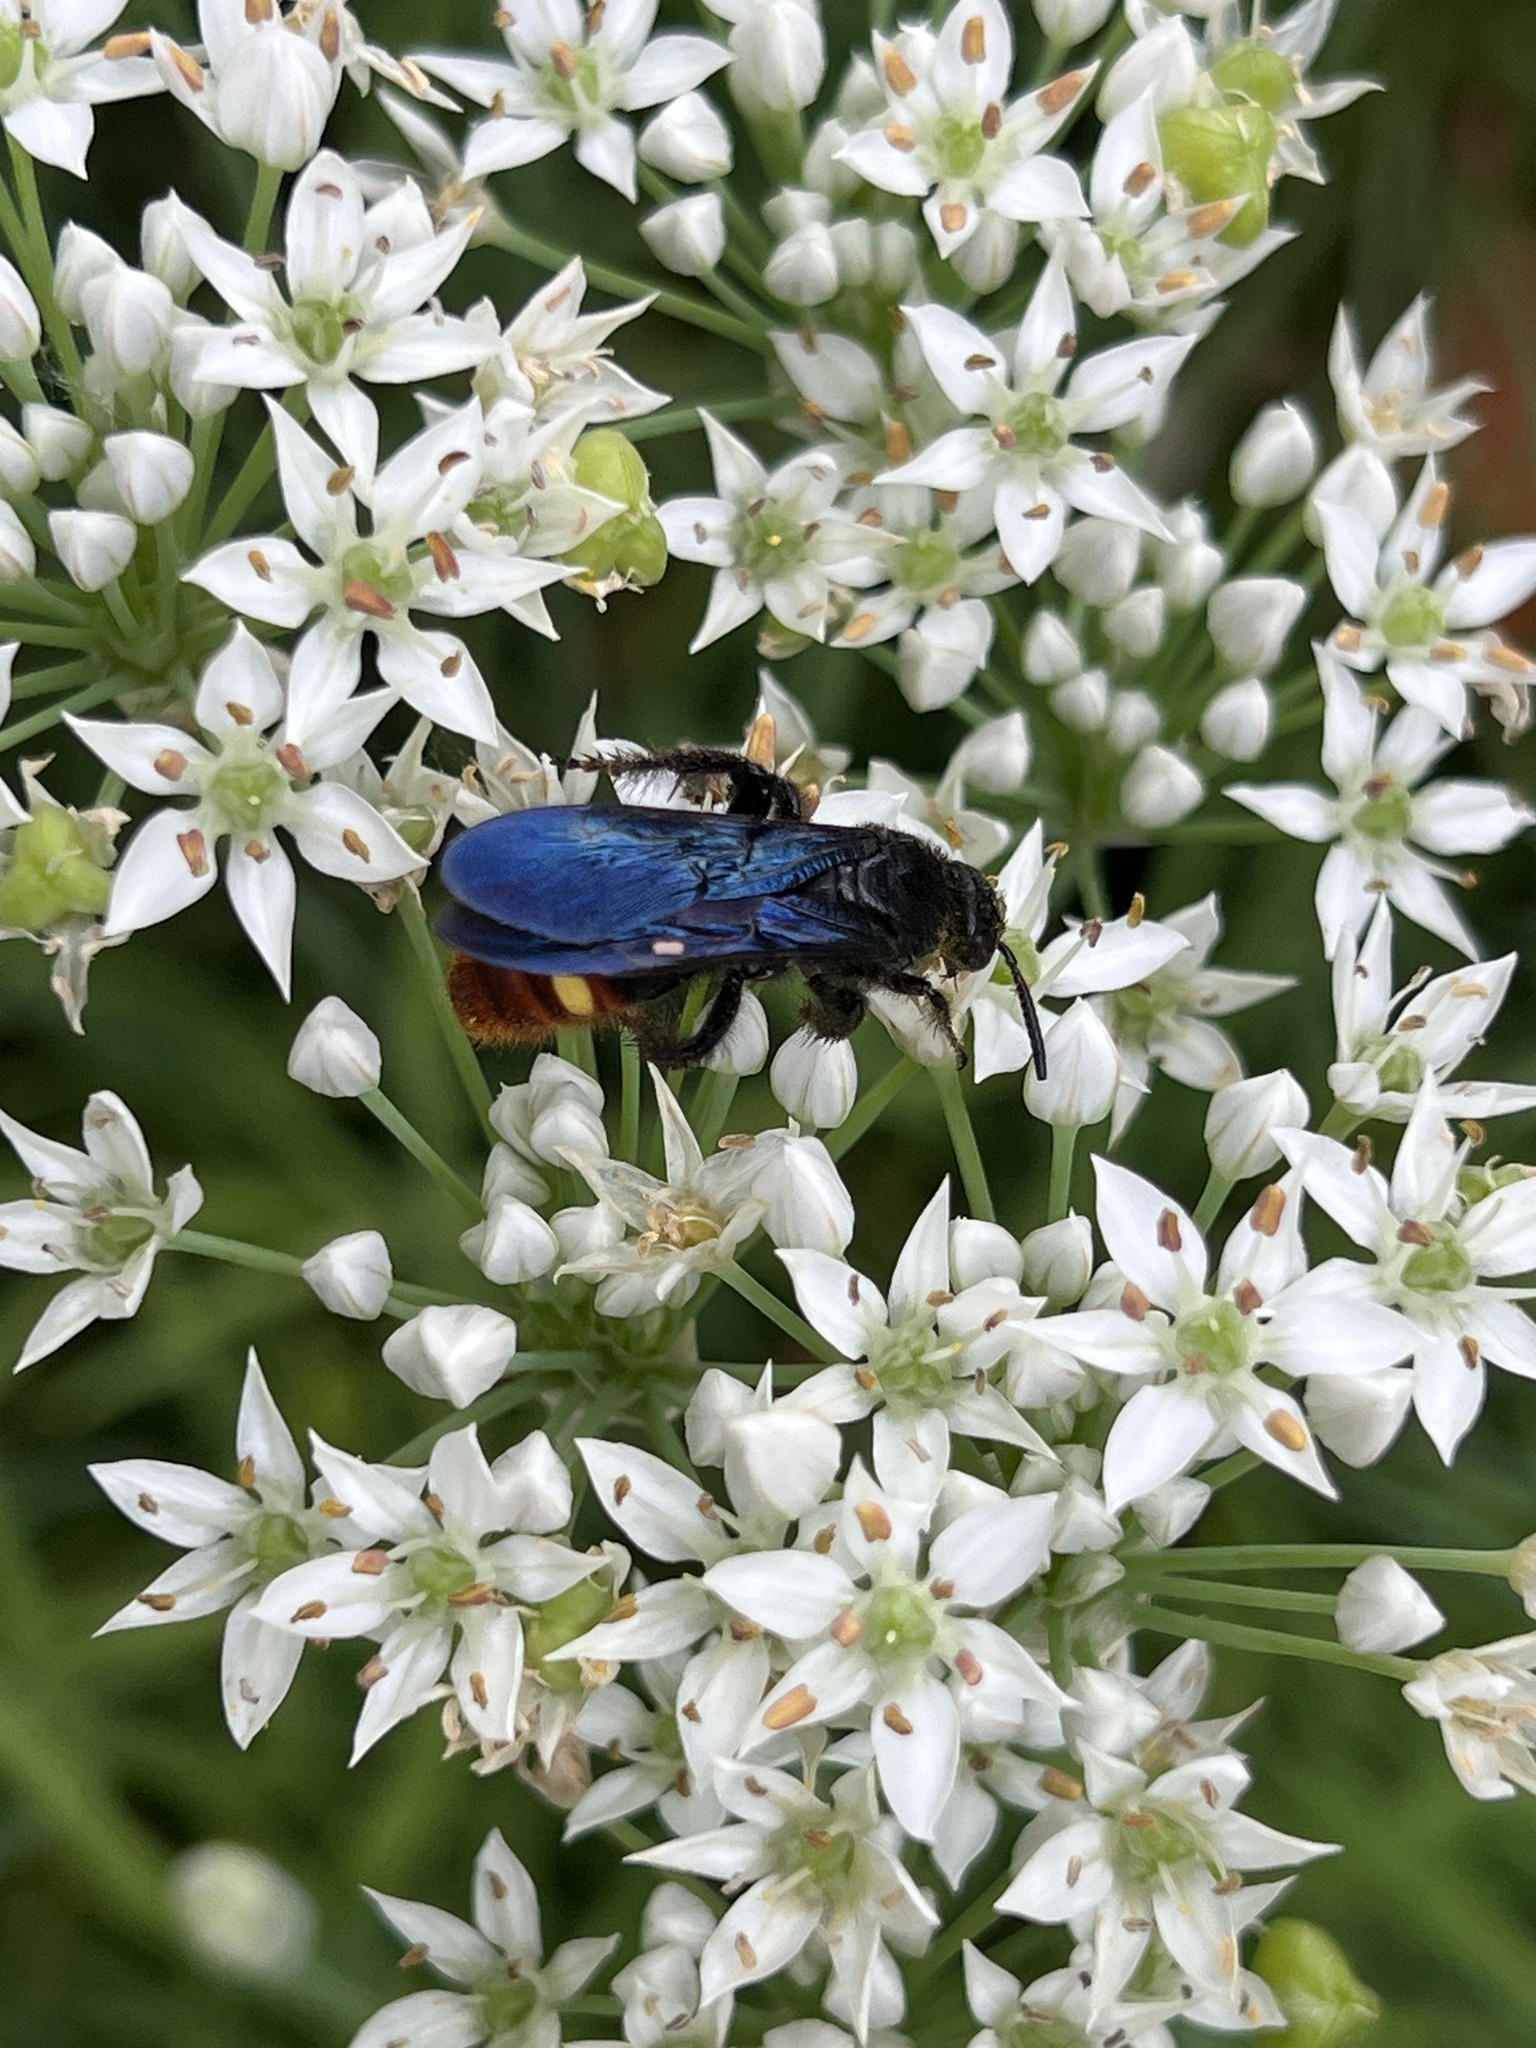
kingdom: Animalia
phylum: Arthropoda
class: Insecta
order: Hymenoptera
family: Scoliidae
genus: Scolia
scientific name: Scolia dubia
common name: Blue-winged scoliid wasp
